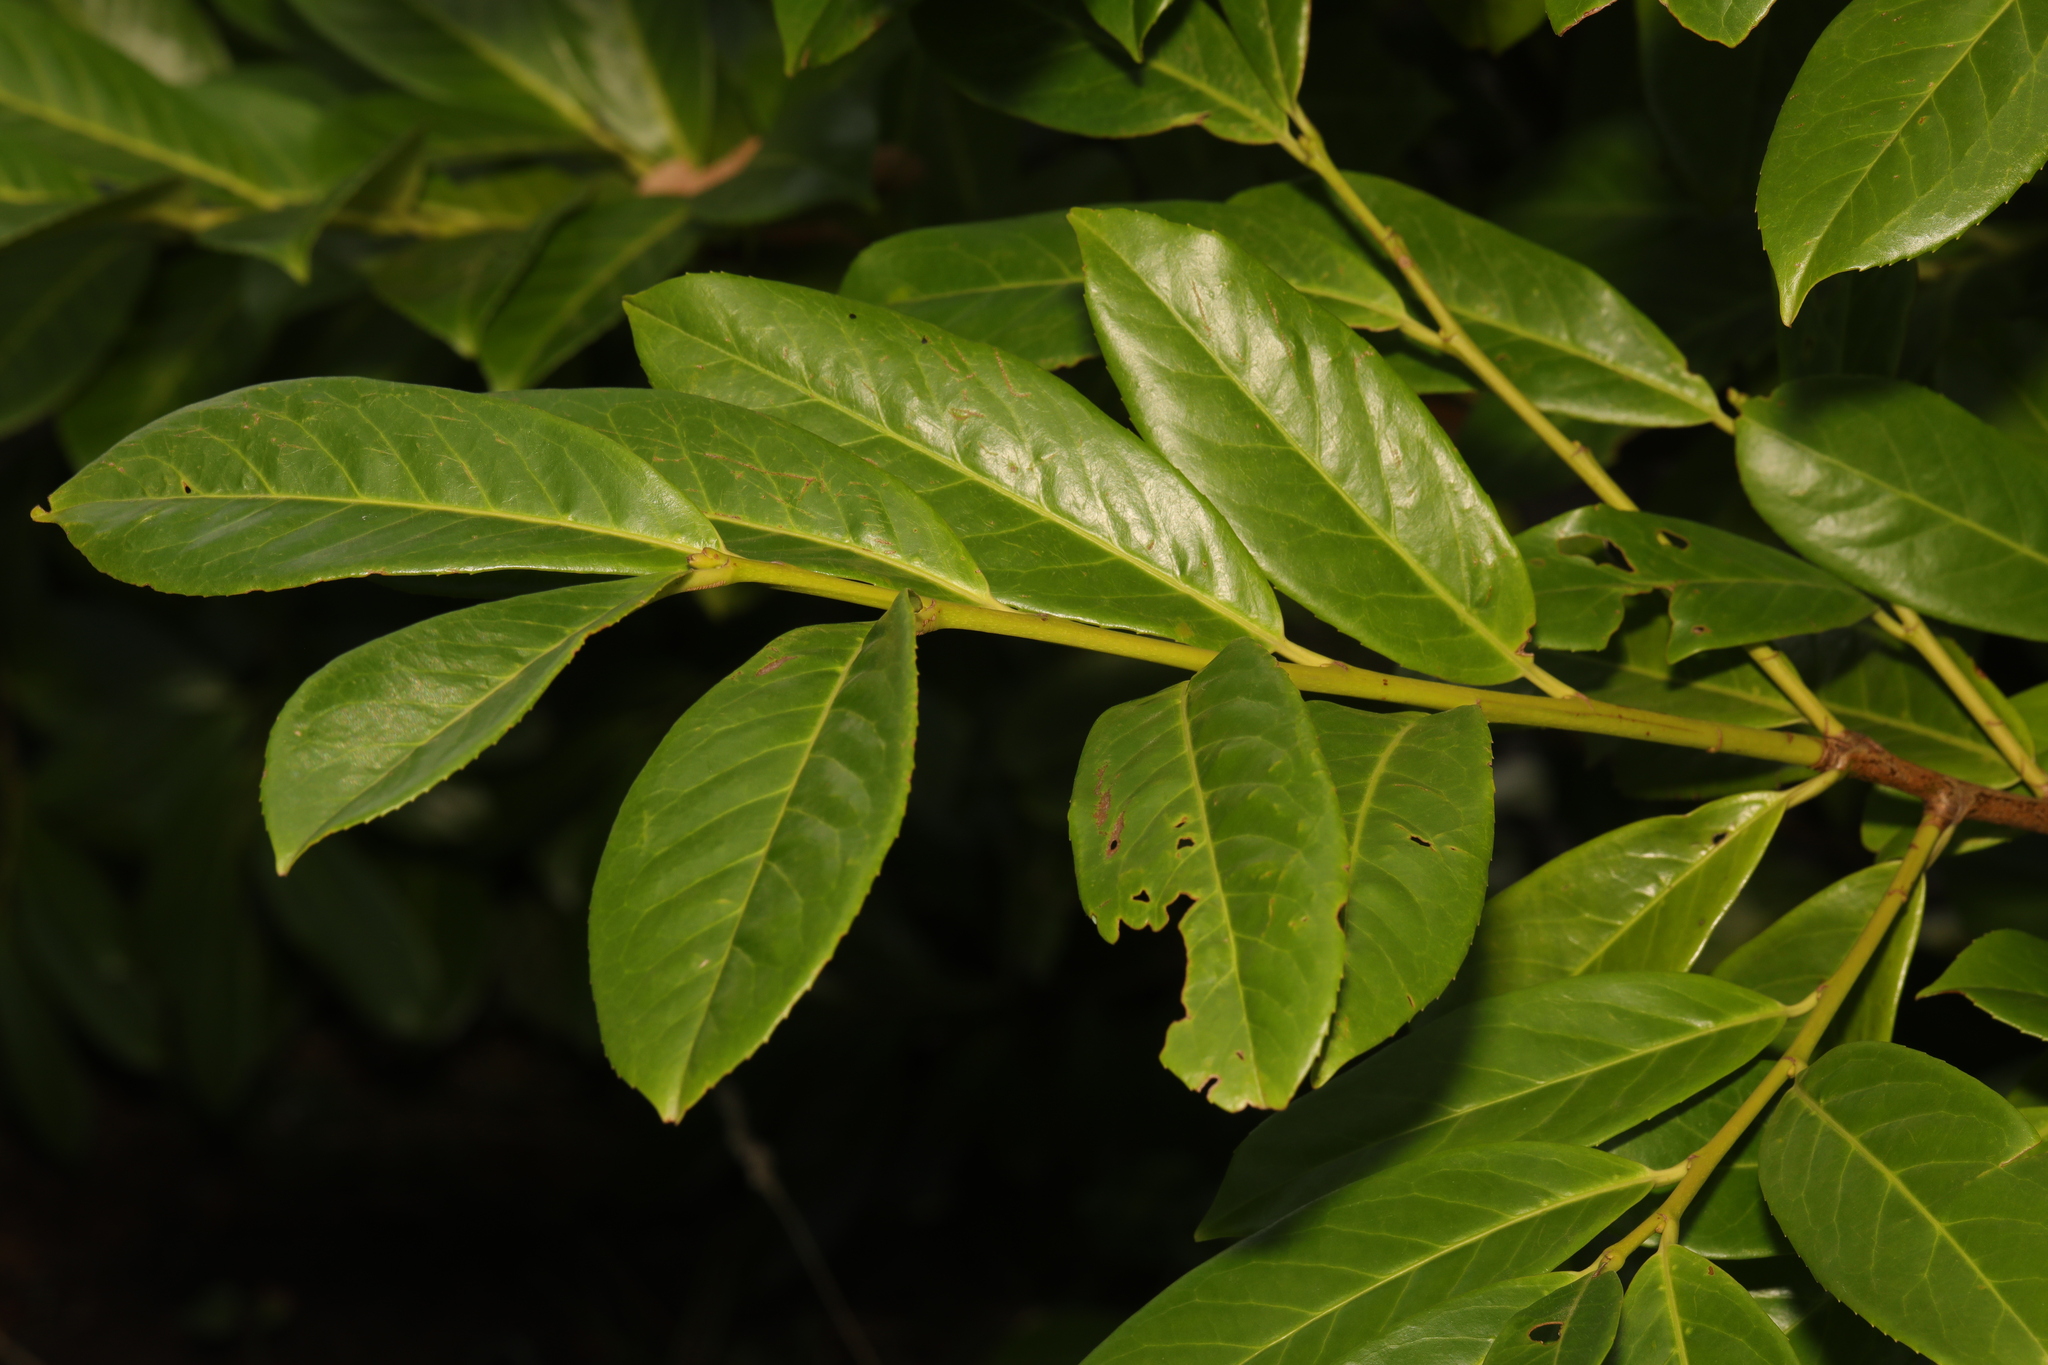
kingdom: Plantae
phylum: Tracheophyta
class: Magnoliopsida
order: Rosales
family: Rosaceae
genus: Prunus
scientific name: Prunus laurocerasus
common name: Cherry laurel
